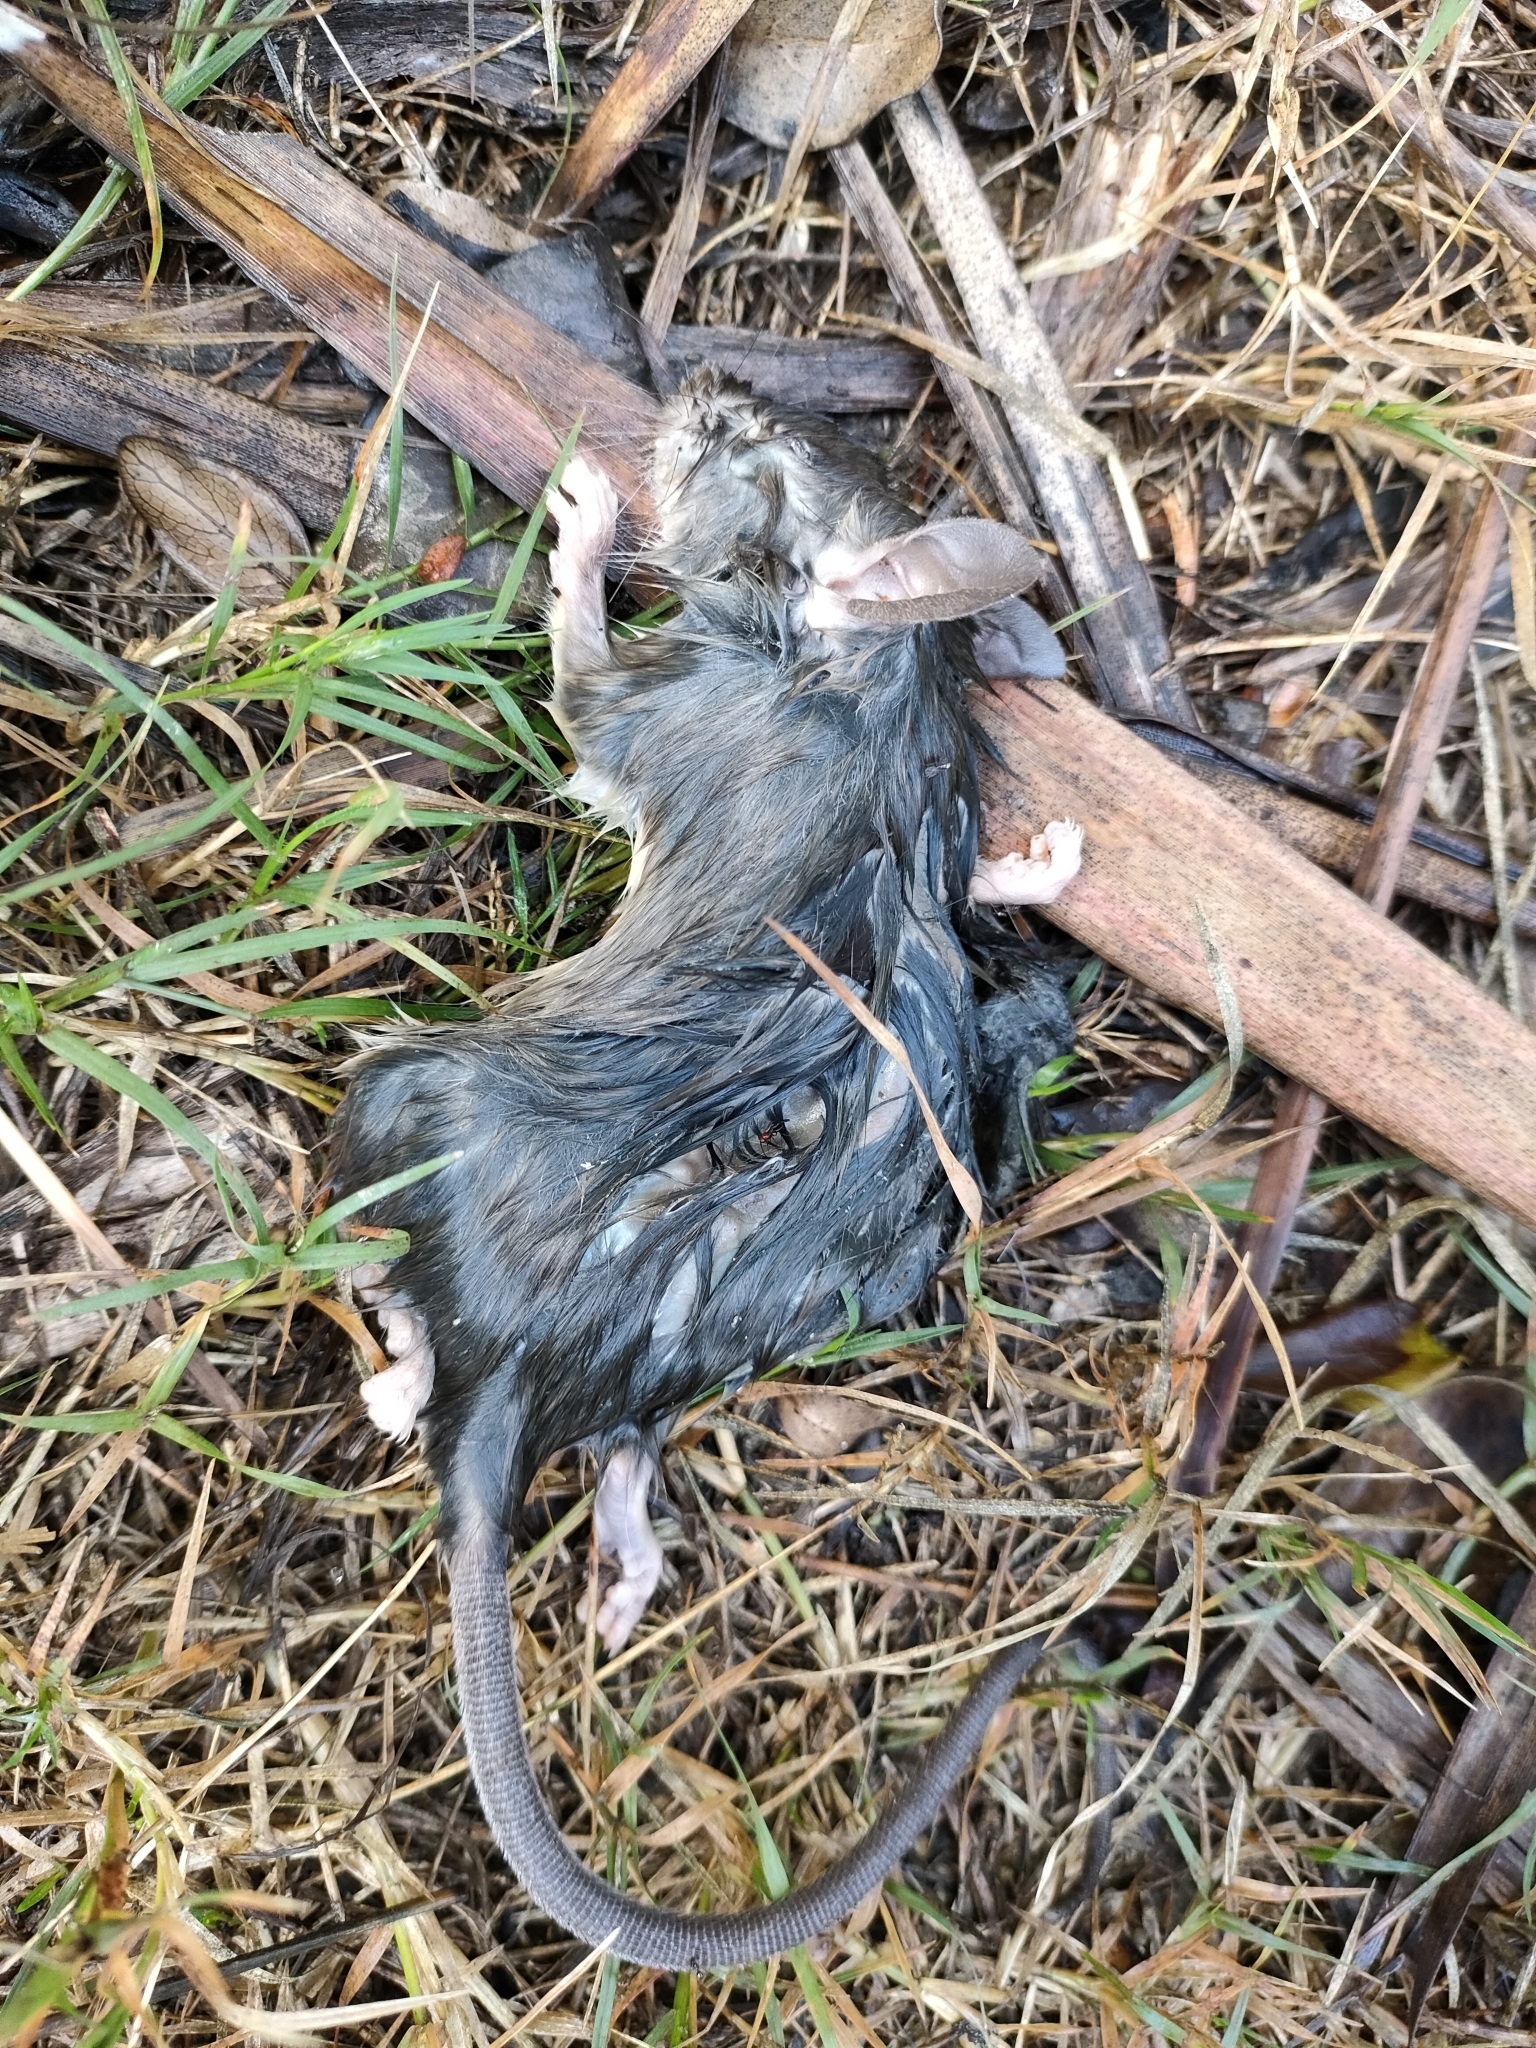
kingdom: Animalia
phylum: Chordata
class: Mammalia
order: Rodentia
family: Muridae
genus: Rattus
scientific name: Rattus rattus
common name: Black rat
